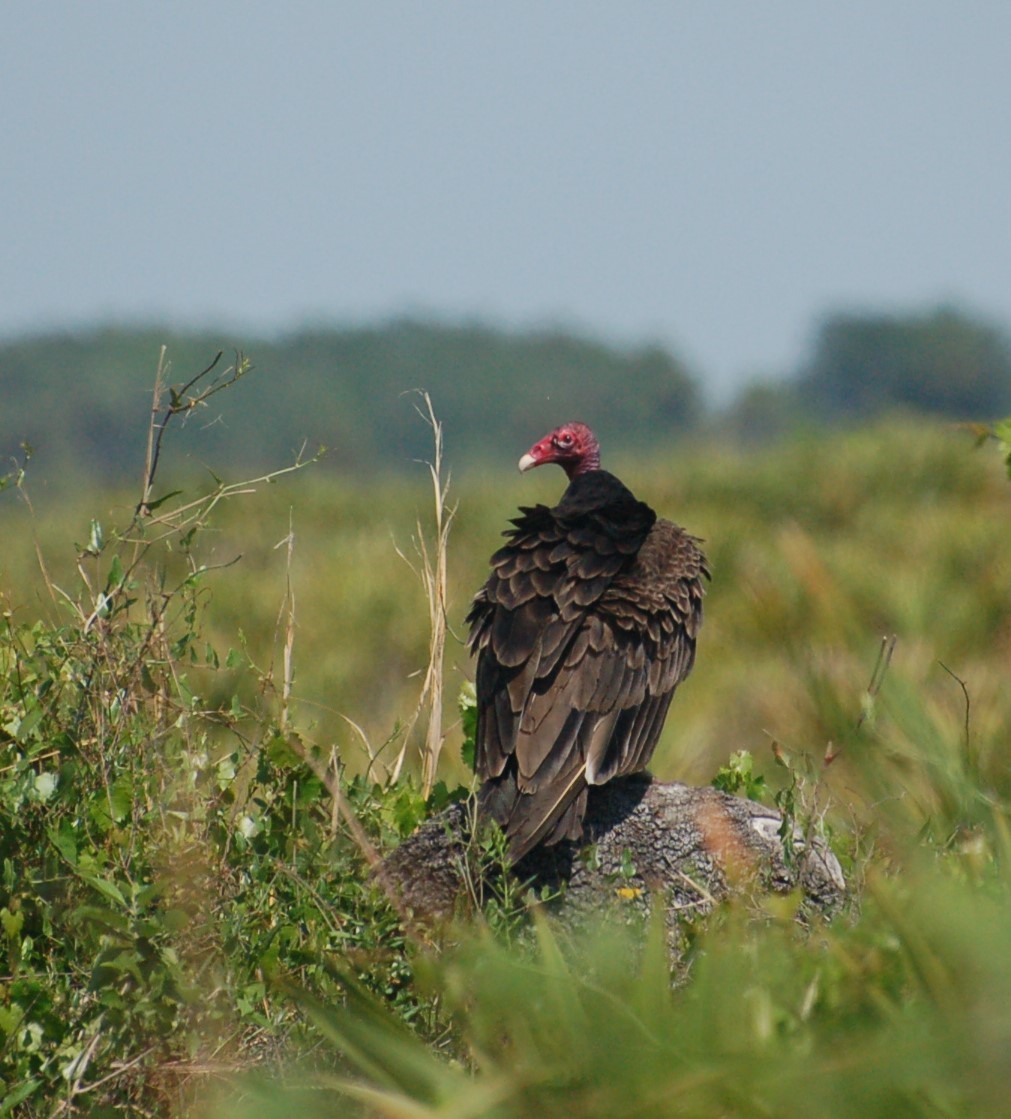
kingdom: Animalia
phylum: Chordata
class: Aves
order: Accipitriformes
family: Cathartidae
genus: Cathartes
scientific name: Cathartes aura
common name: Turkey vulture
